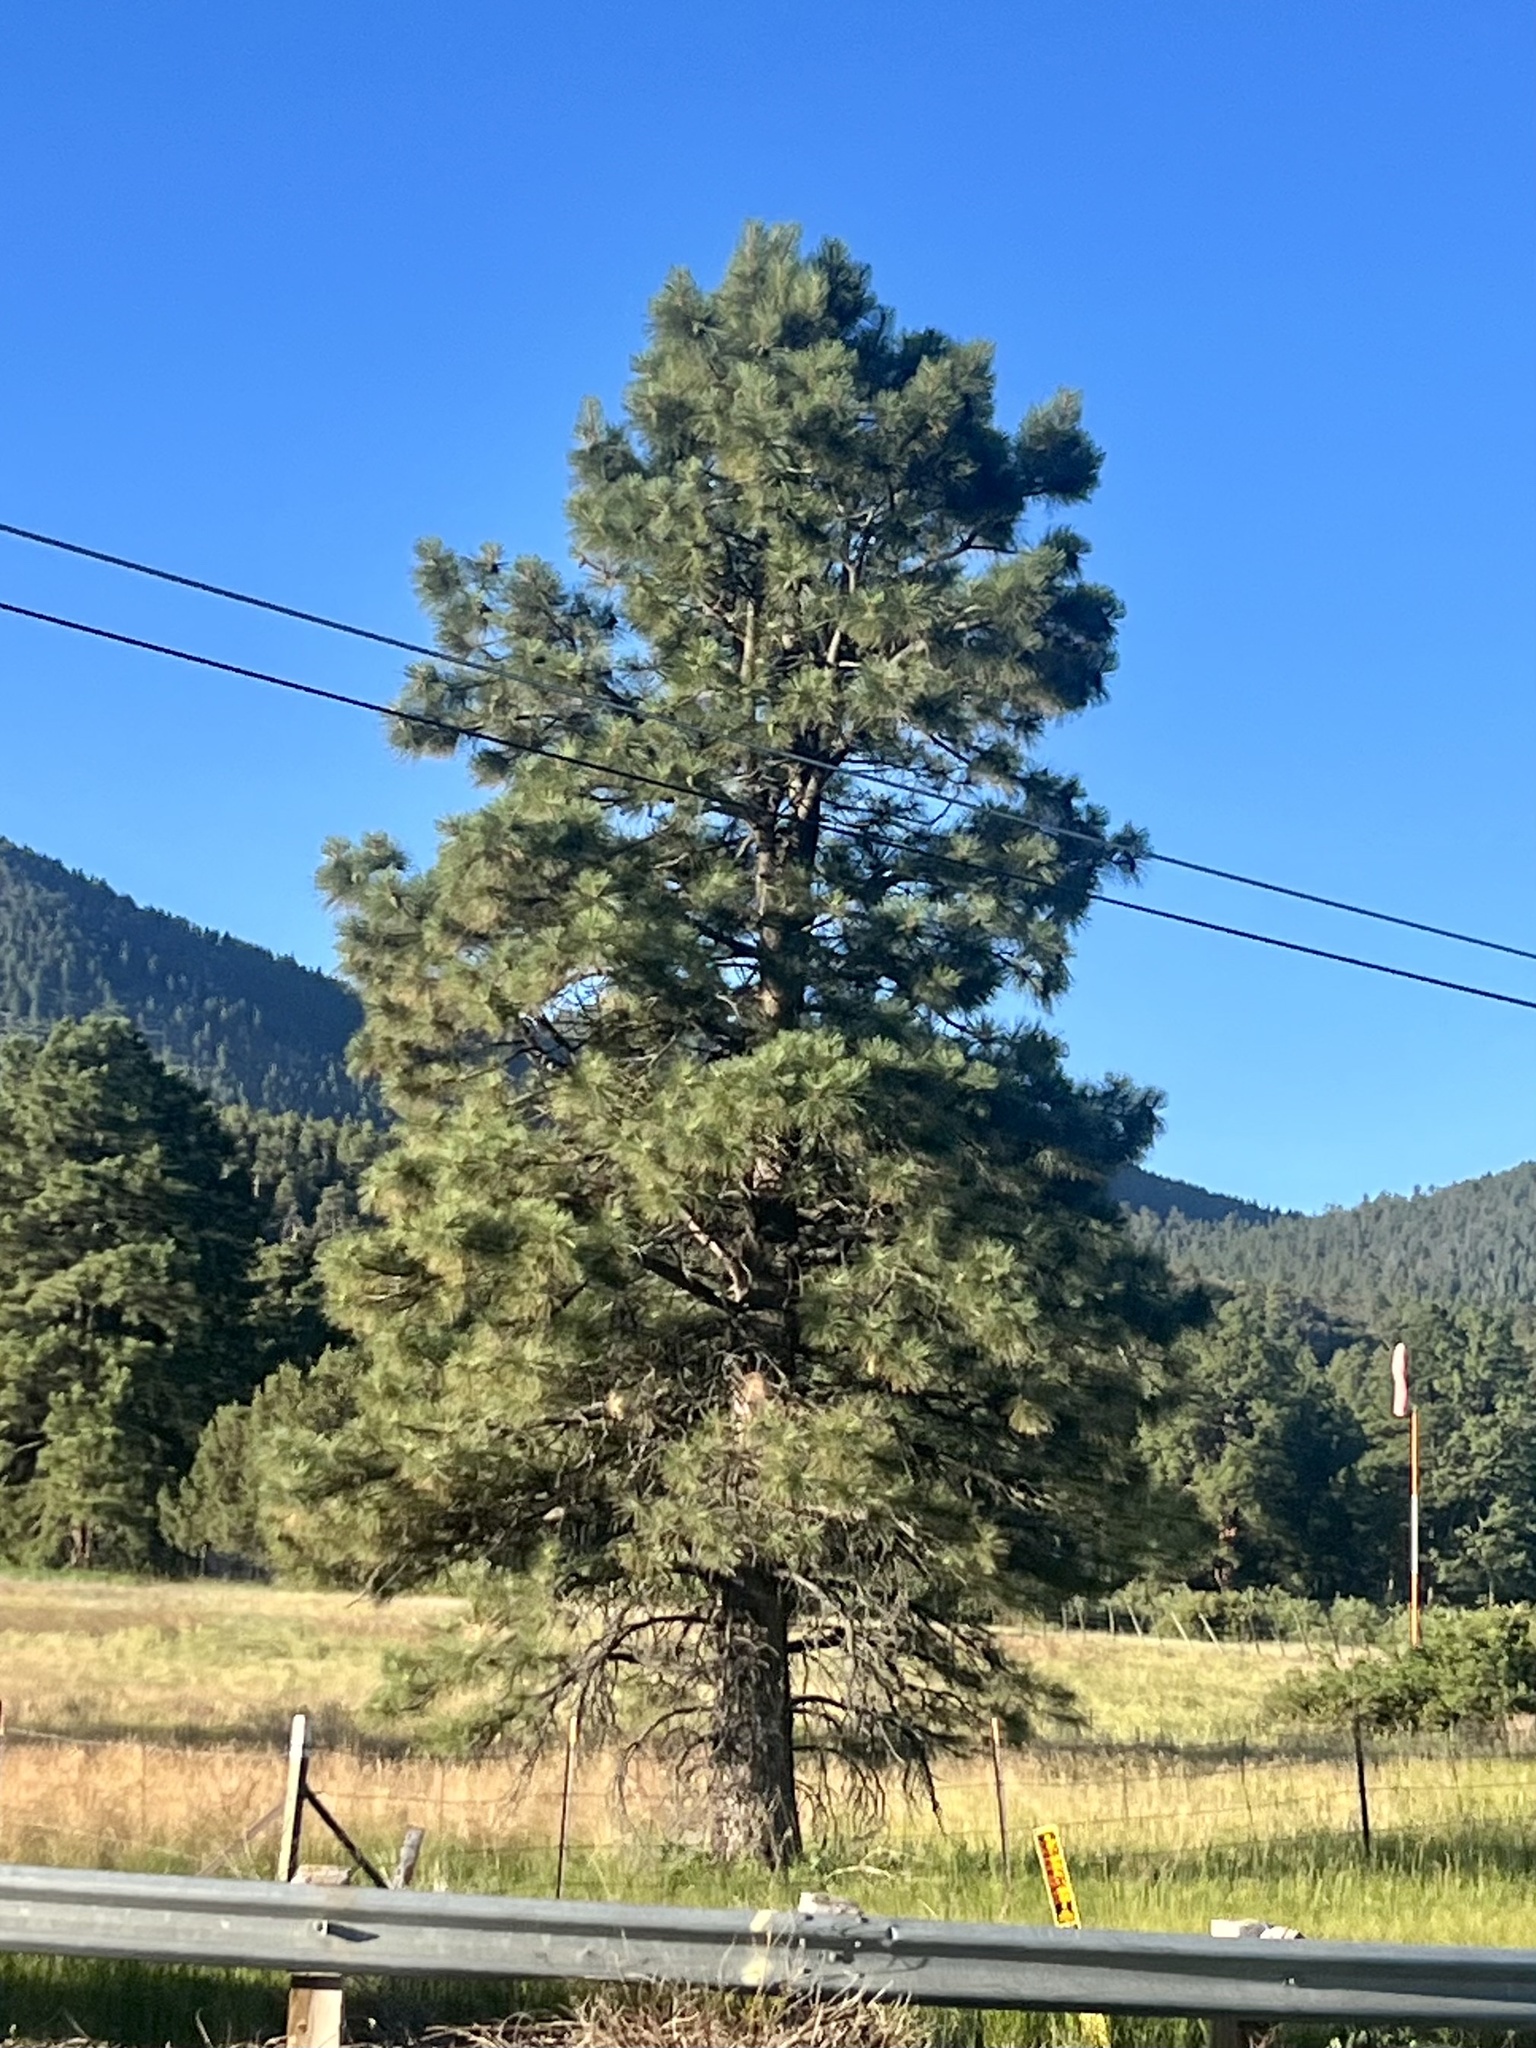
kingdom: Plantae
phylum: Tracheophyta
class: Pinopsida
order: Pinales
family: Pinaceae
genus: Pinus
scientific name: Pinus ponderosa
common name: Western yellow-pine
